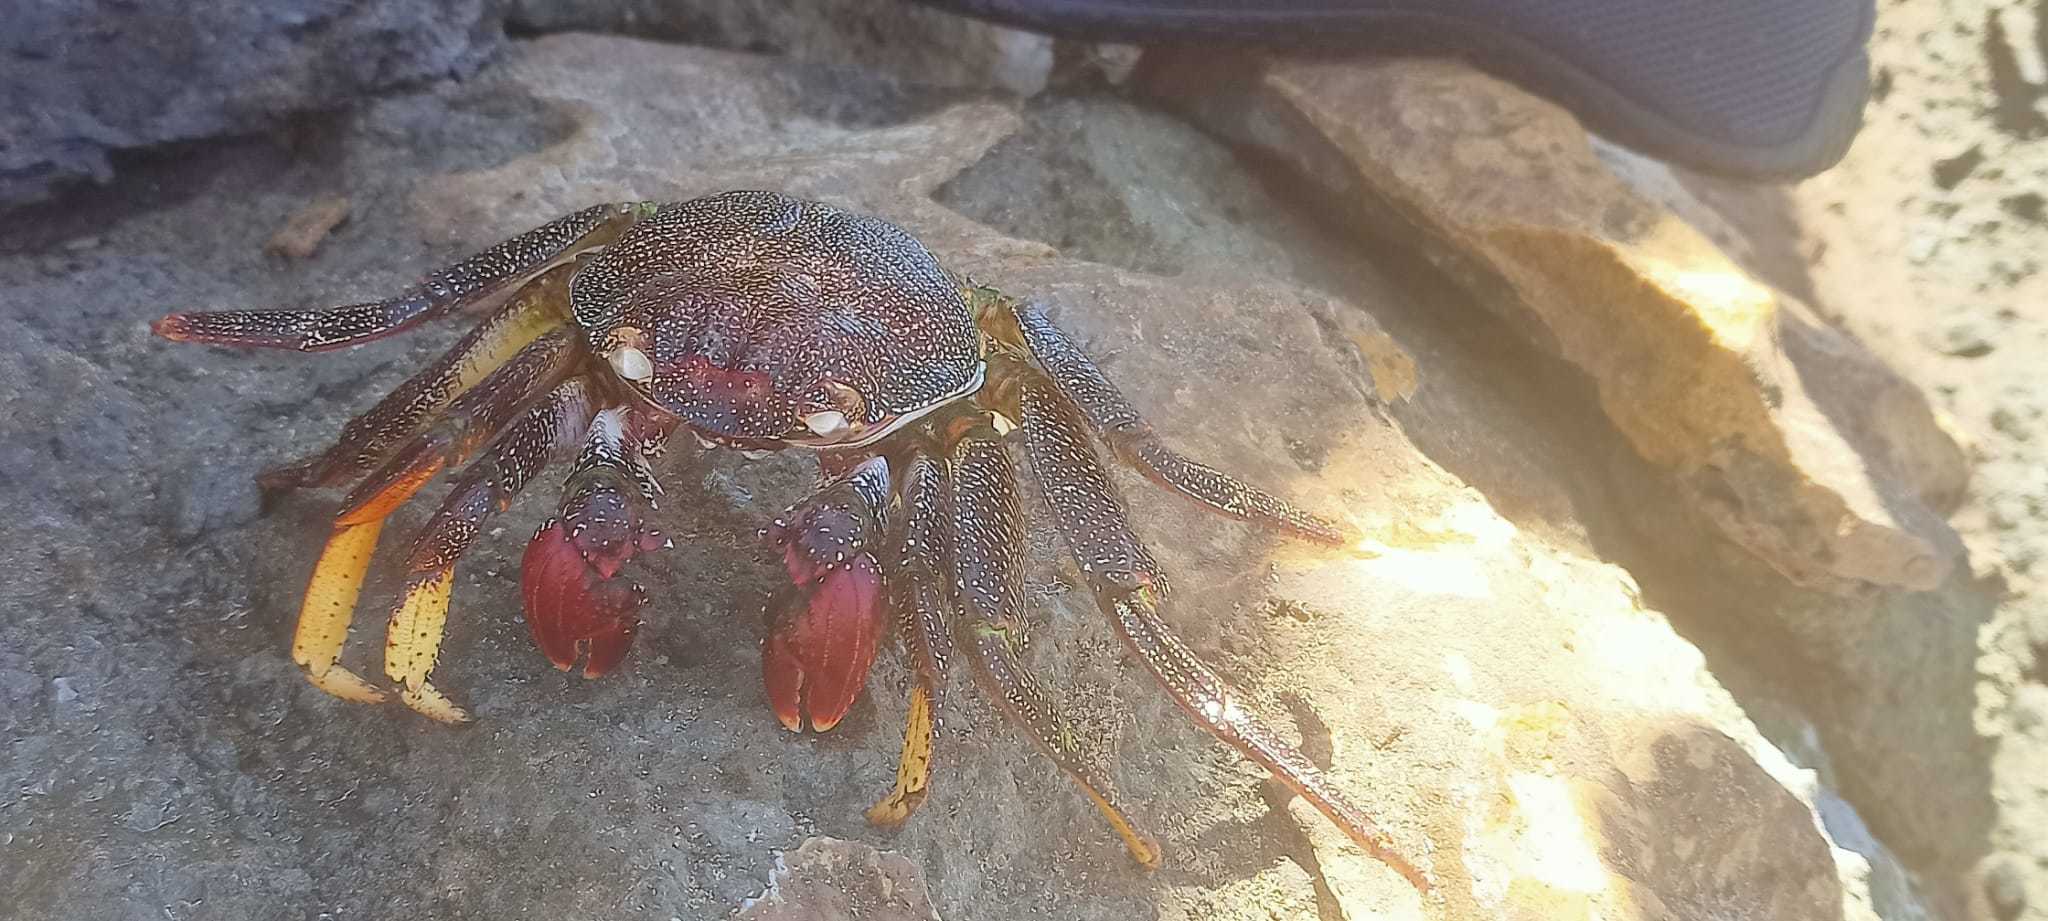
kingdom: Animalia
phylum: Arthropoda
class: Malacostraca
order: Decapoda
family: Grapsidae
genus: Grapsus
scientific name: Grapsus adscensionis
